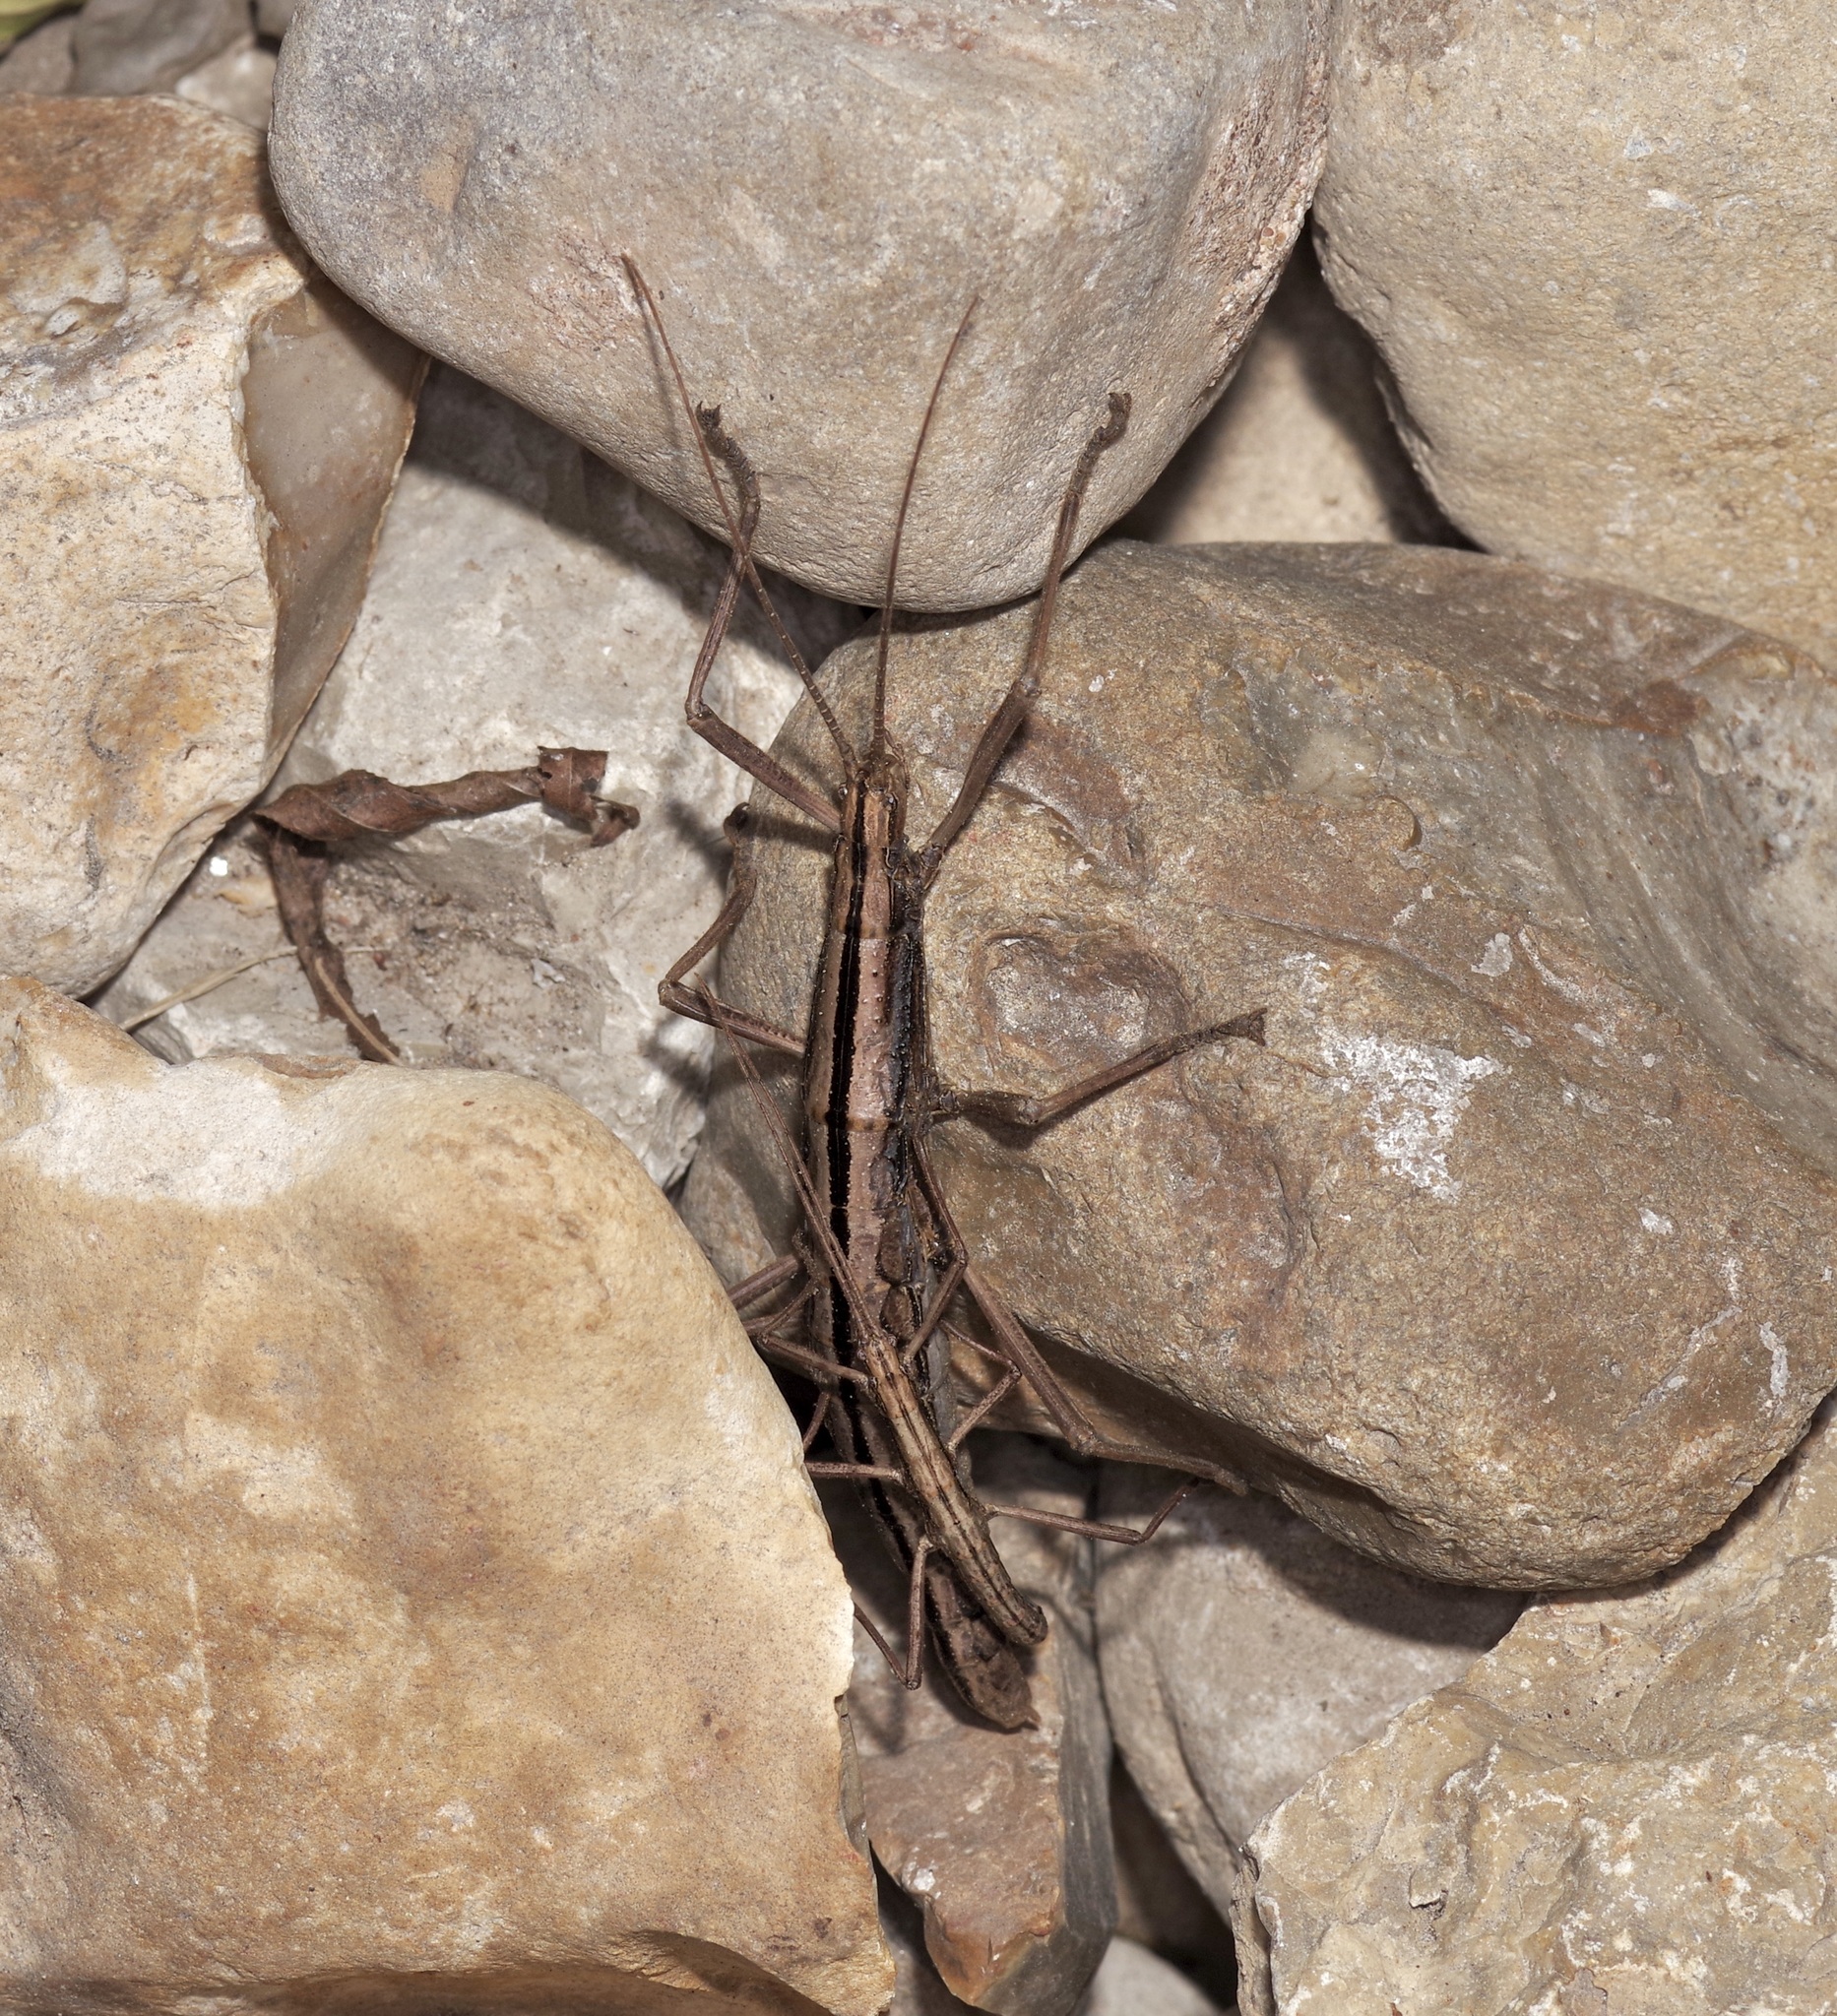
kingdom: Animalia
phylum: Arthropoda
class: Insecta
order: Phasmida
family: Pseudophasmatidae
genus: Anisomorpha
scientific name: Anisomorpha buprestoides
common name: Florida stick insect
